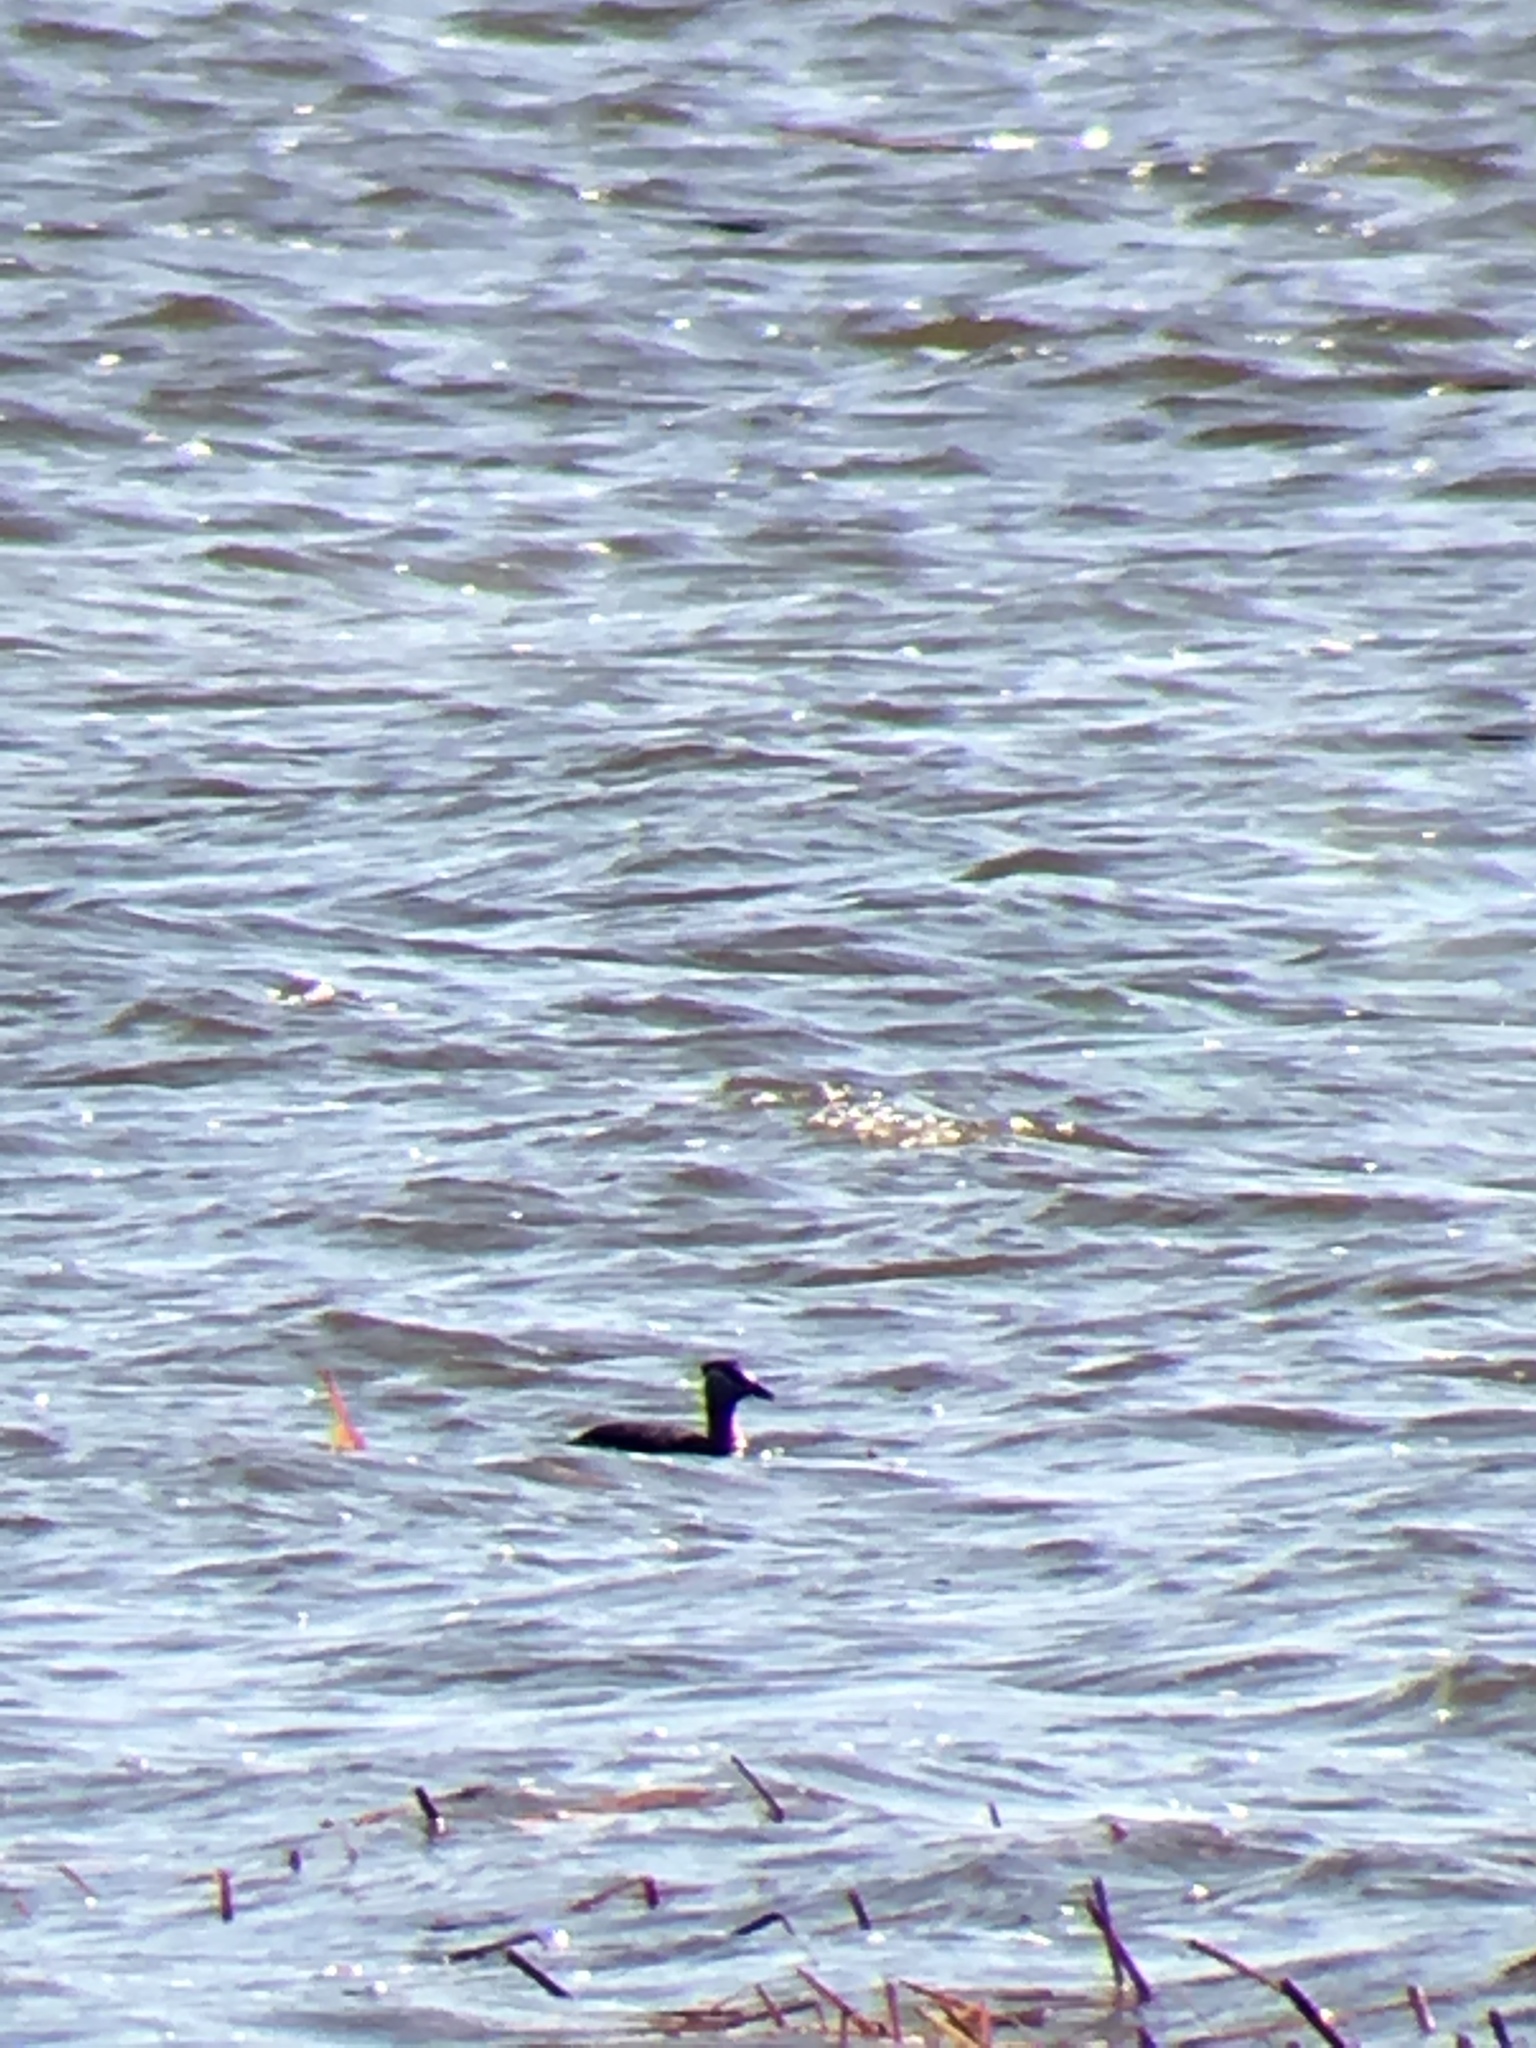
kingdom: Animalia
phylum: Chordata
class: Aves
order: Podicipediformes
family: Podicipedidae
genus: Podiceps
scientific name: Podiceps grisegena
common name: Red-necked grebe
